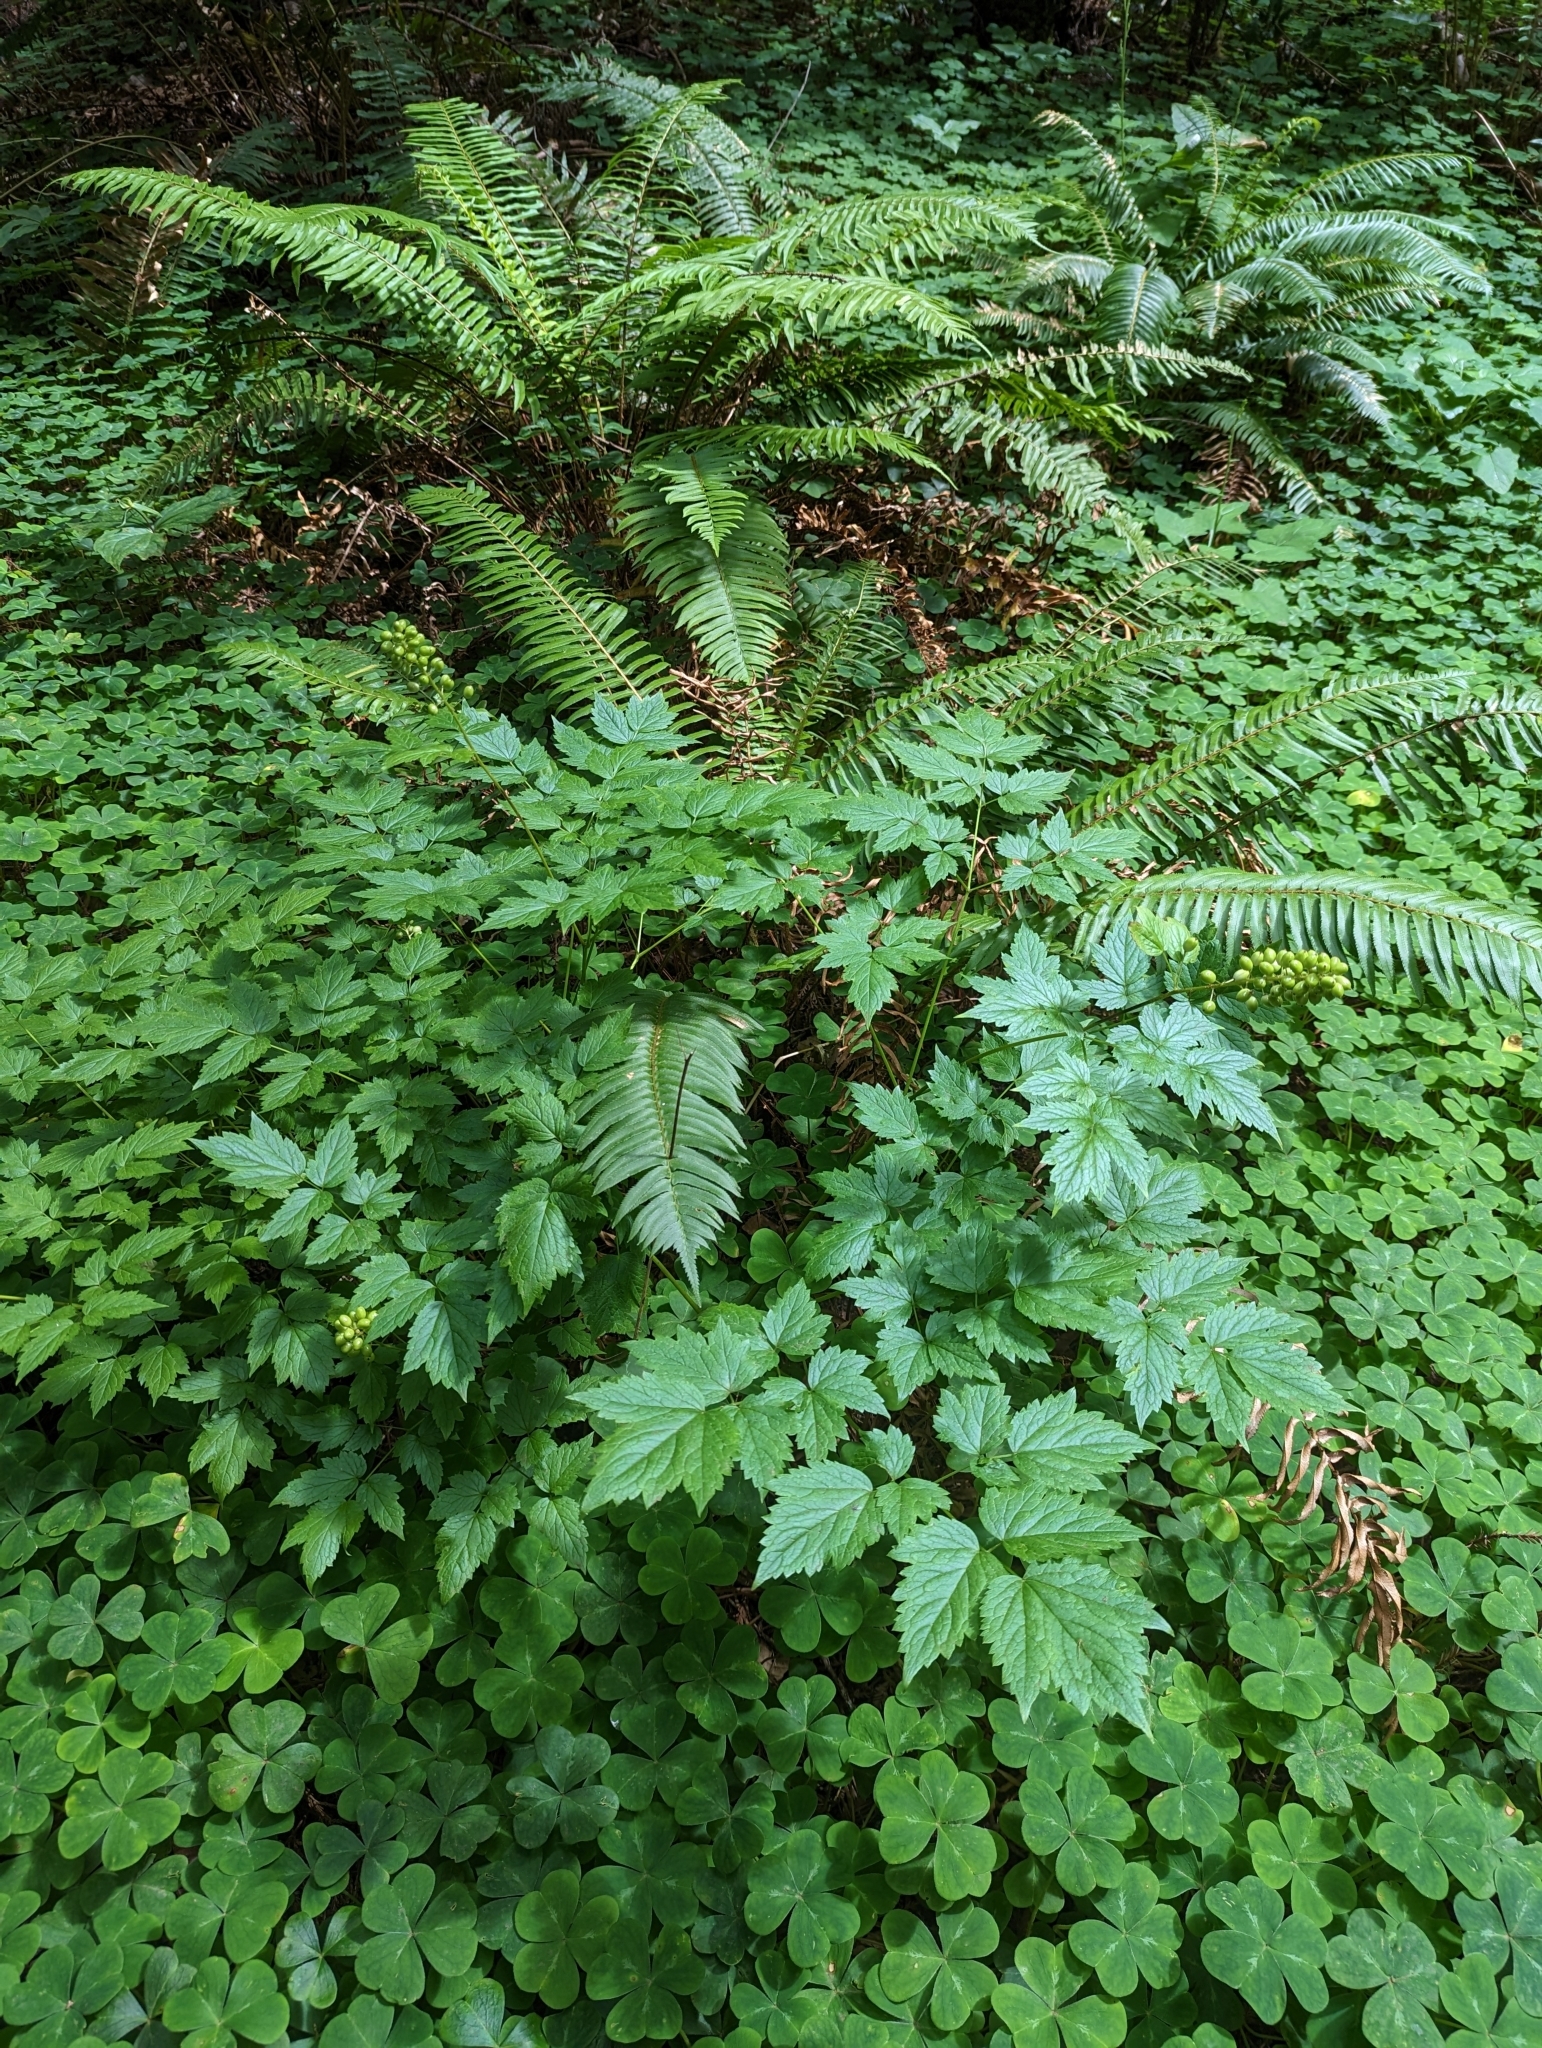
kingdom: Plantae
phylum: Tracheophyta
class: Magnoliopsida
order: Ranunculales
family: Ranunculaceae
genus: Actaea
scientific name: Actaea rubra
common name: Red baneberry
